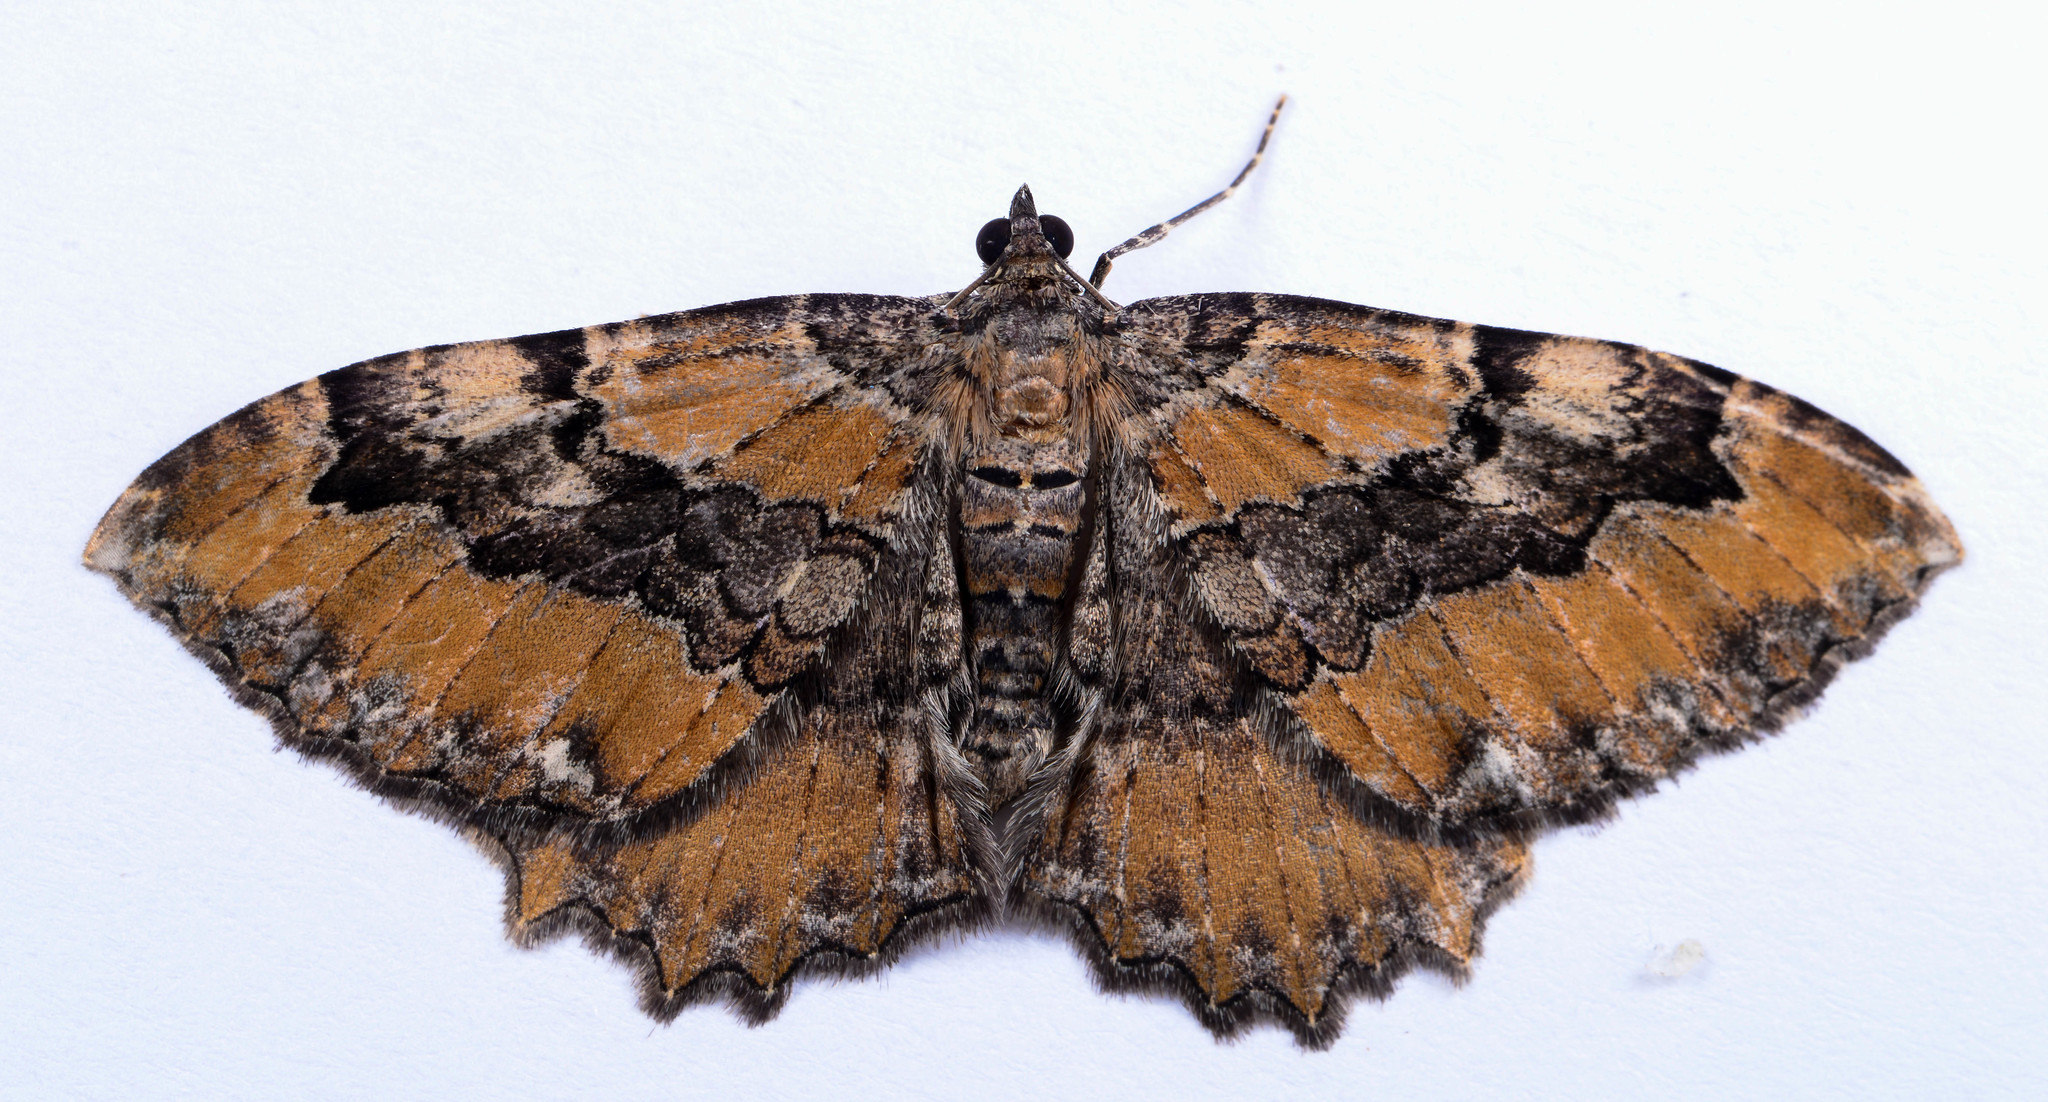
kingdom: Animalia
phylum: Arthropoda
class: Insecta
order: Lepidoptera
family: Geometridae
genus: Rheumaptera
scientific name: Rheumaptera
